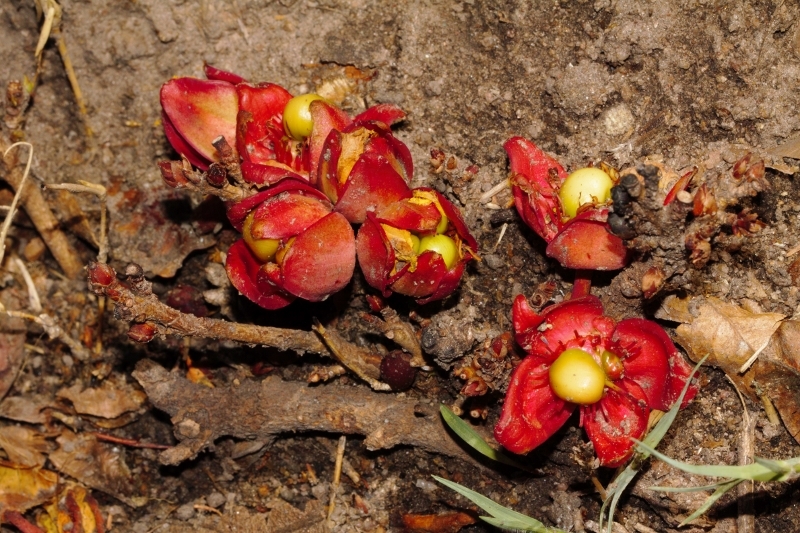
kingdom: Plantae
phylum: Tracheophyta
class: Magnoliopsida
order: Malpighiales
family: Ochnaceae
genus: Ochna
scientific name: Ochna macrocalyx
